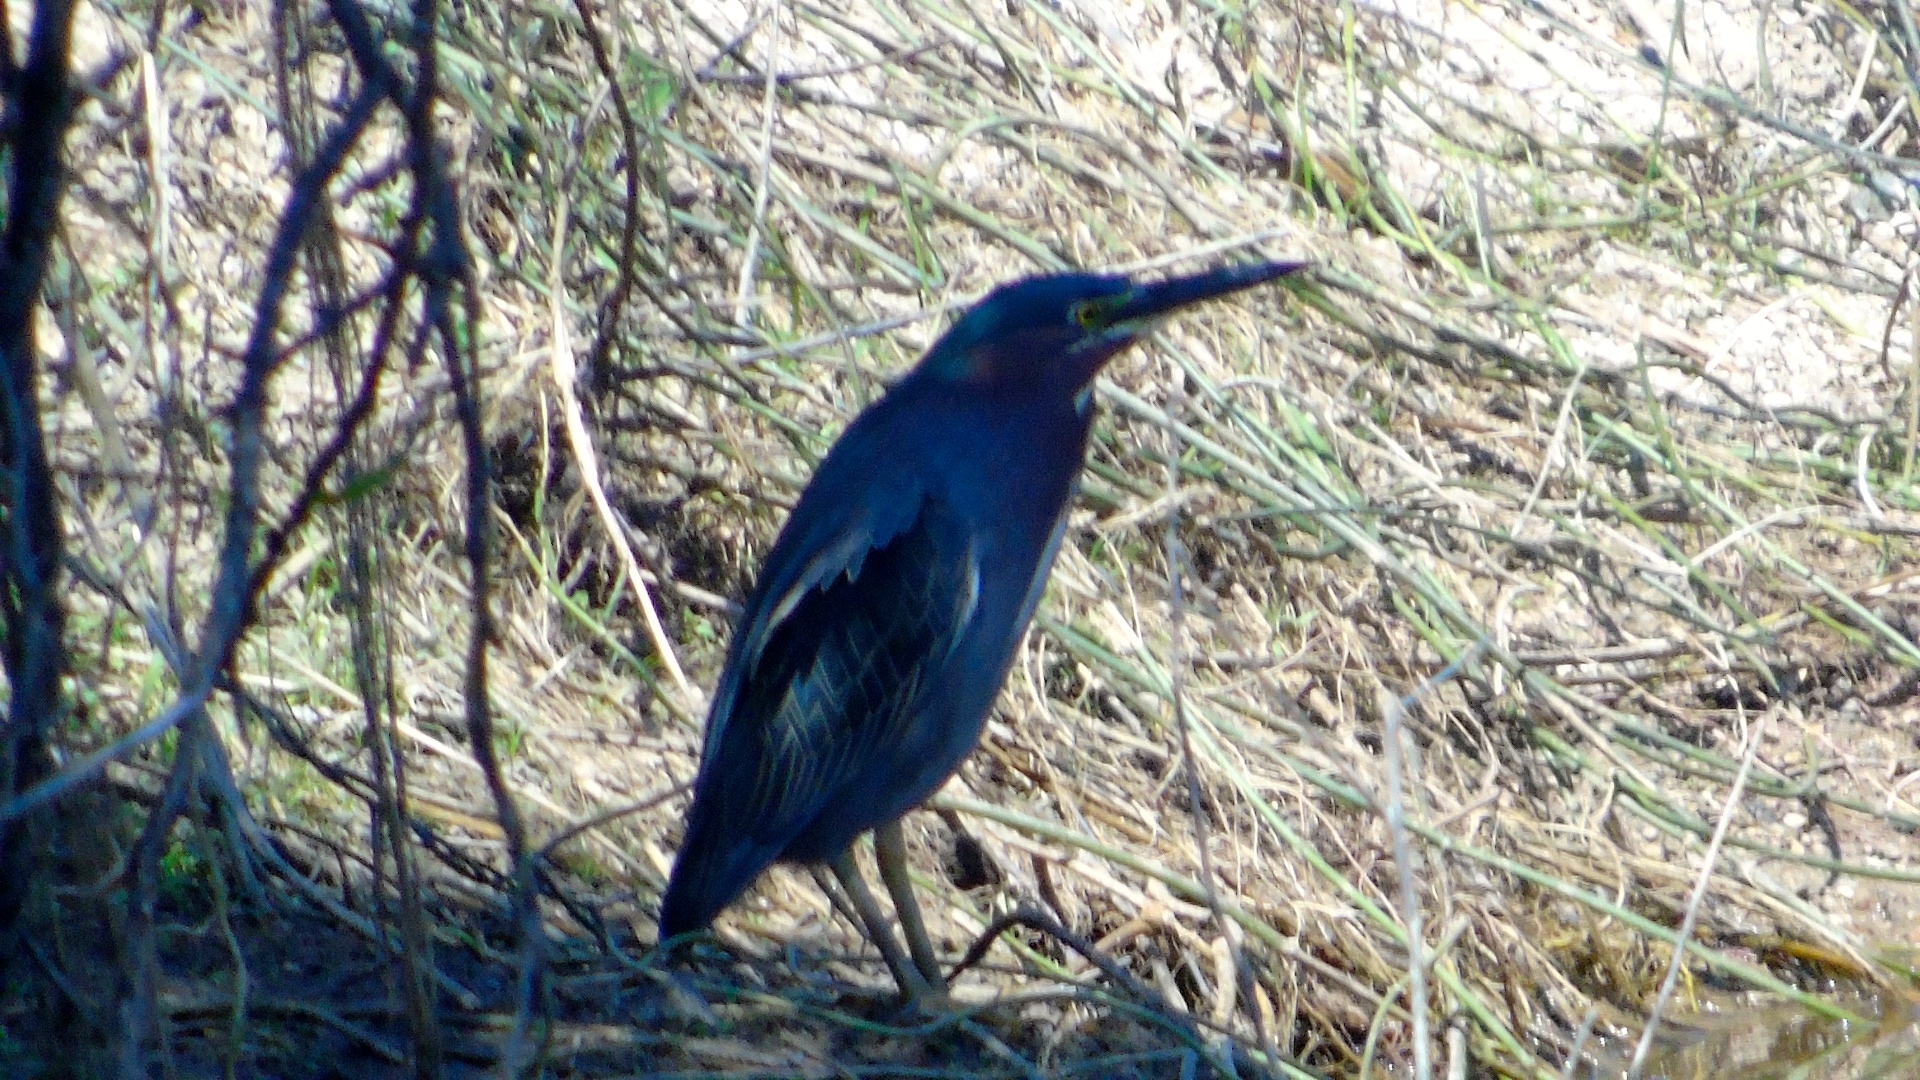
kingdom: Animalia
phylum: Chordata
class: Aves
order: Pelecaniformes
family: Ardeidae
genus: Butorides
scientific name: Butorides virescens
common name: Green heron
